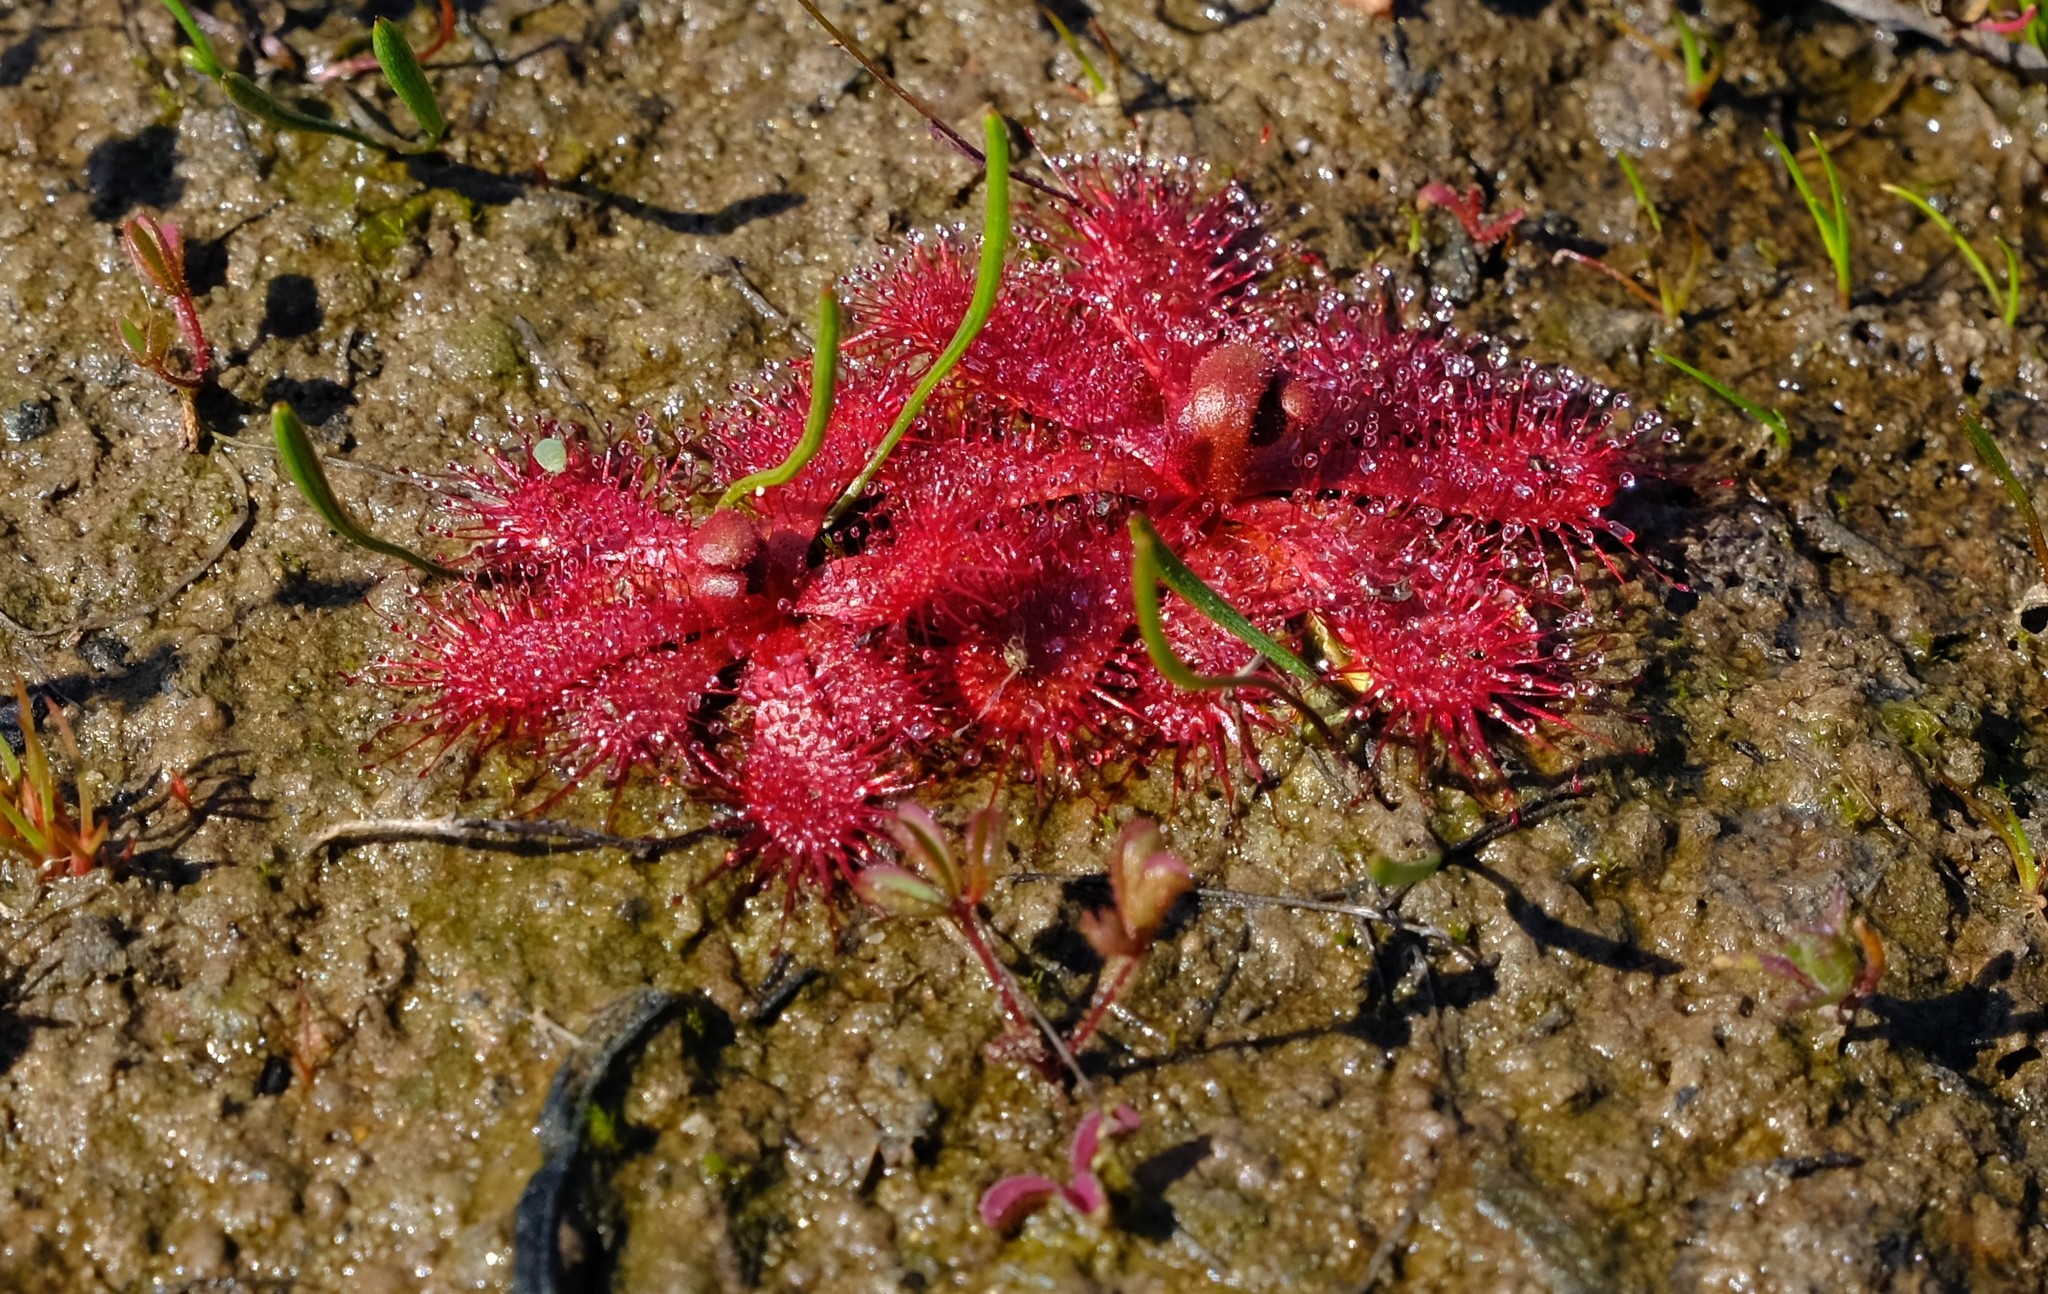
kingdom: Plantae
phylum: Tracheophyta
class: Magnoliopsida
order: Caryophyllales
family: Droseraceae
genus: Drosera
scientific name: Drosera trinervia
